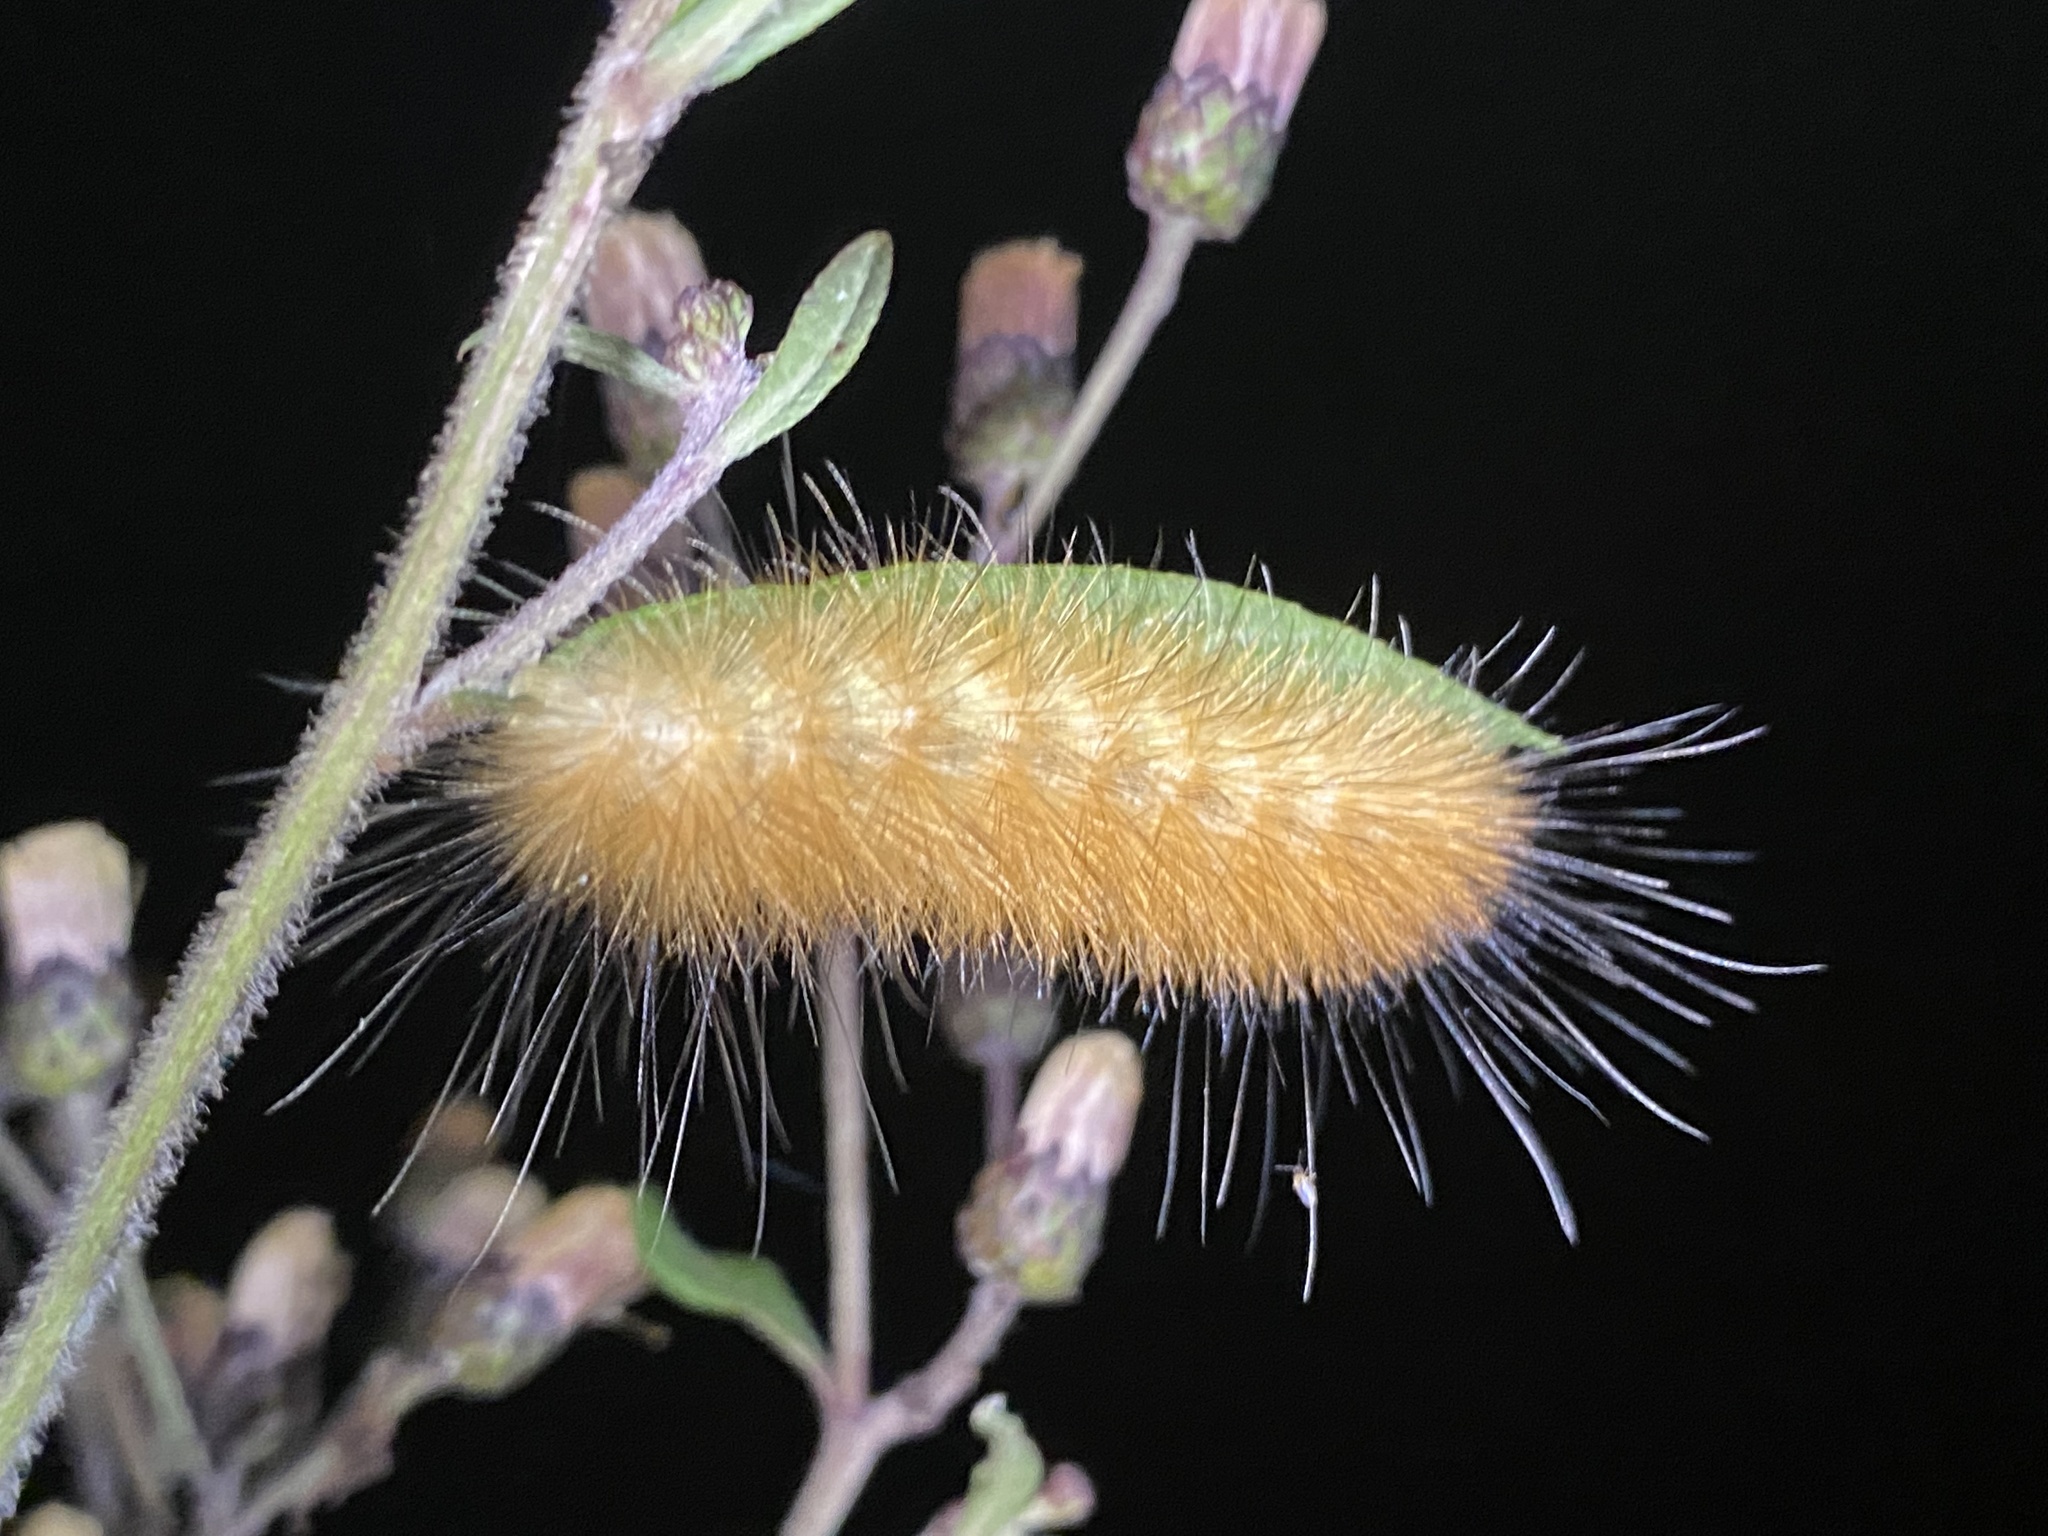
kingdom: Animalia
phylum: Arthropoda
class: Insecta
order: Lepidoptera
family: Erebidae
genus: Spilosoma
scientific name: Spilosoma virginica
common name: Virginia tiger moth
